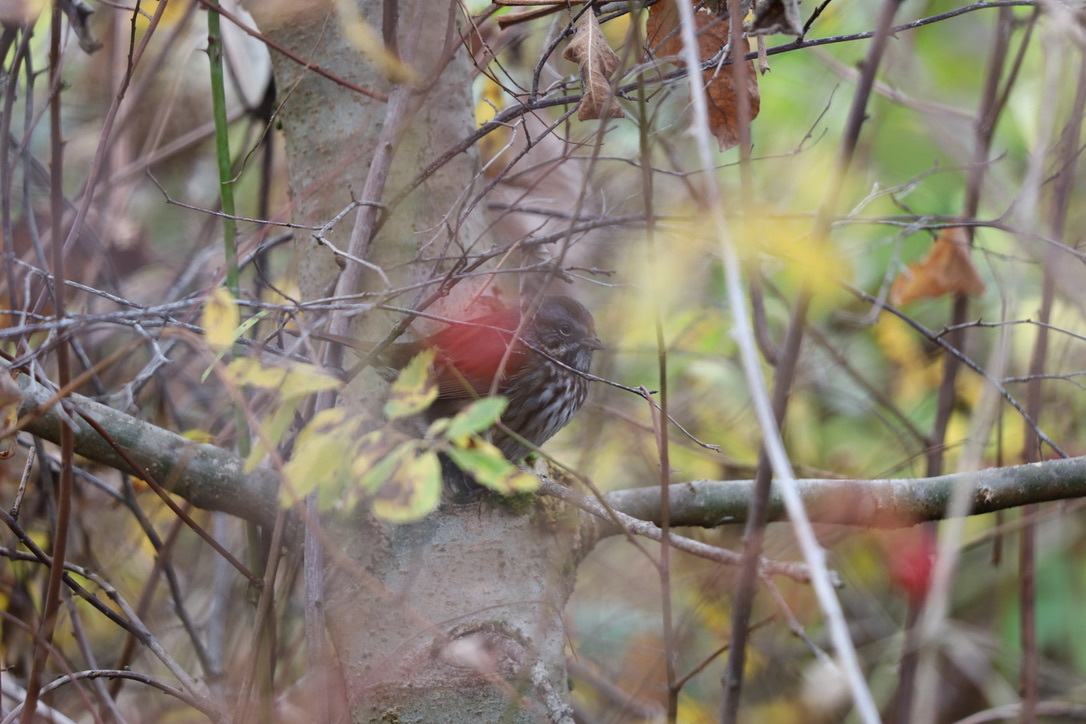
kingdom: Animalia
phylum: Chordata
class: Aves
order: Passeriformes
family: Passerellidae
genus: Melospiza
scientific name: Melospiza melodia
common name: Song sparrow
